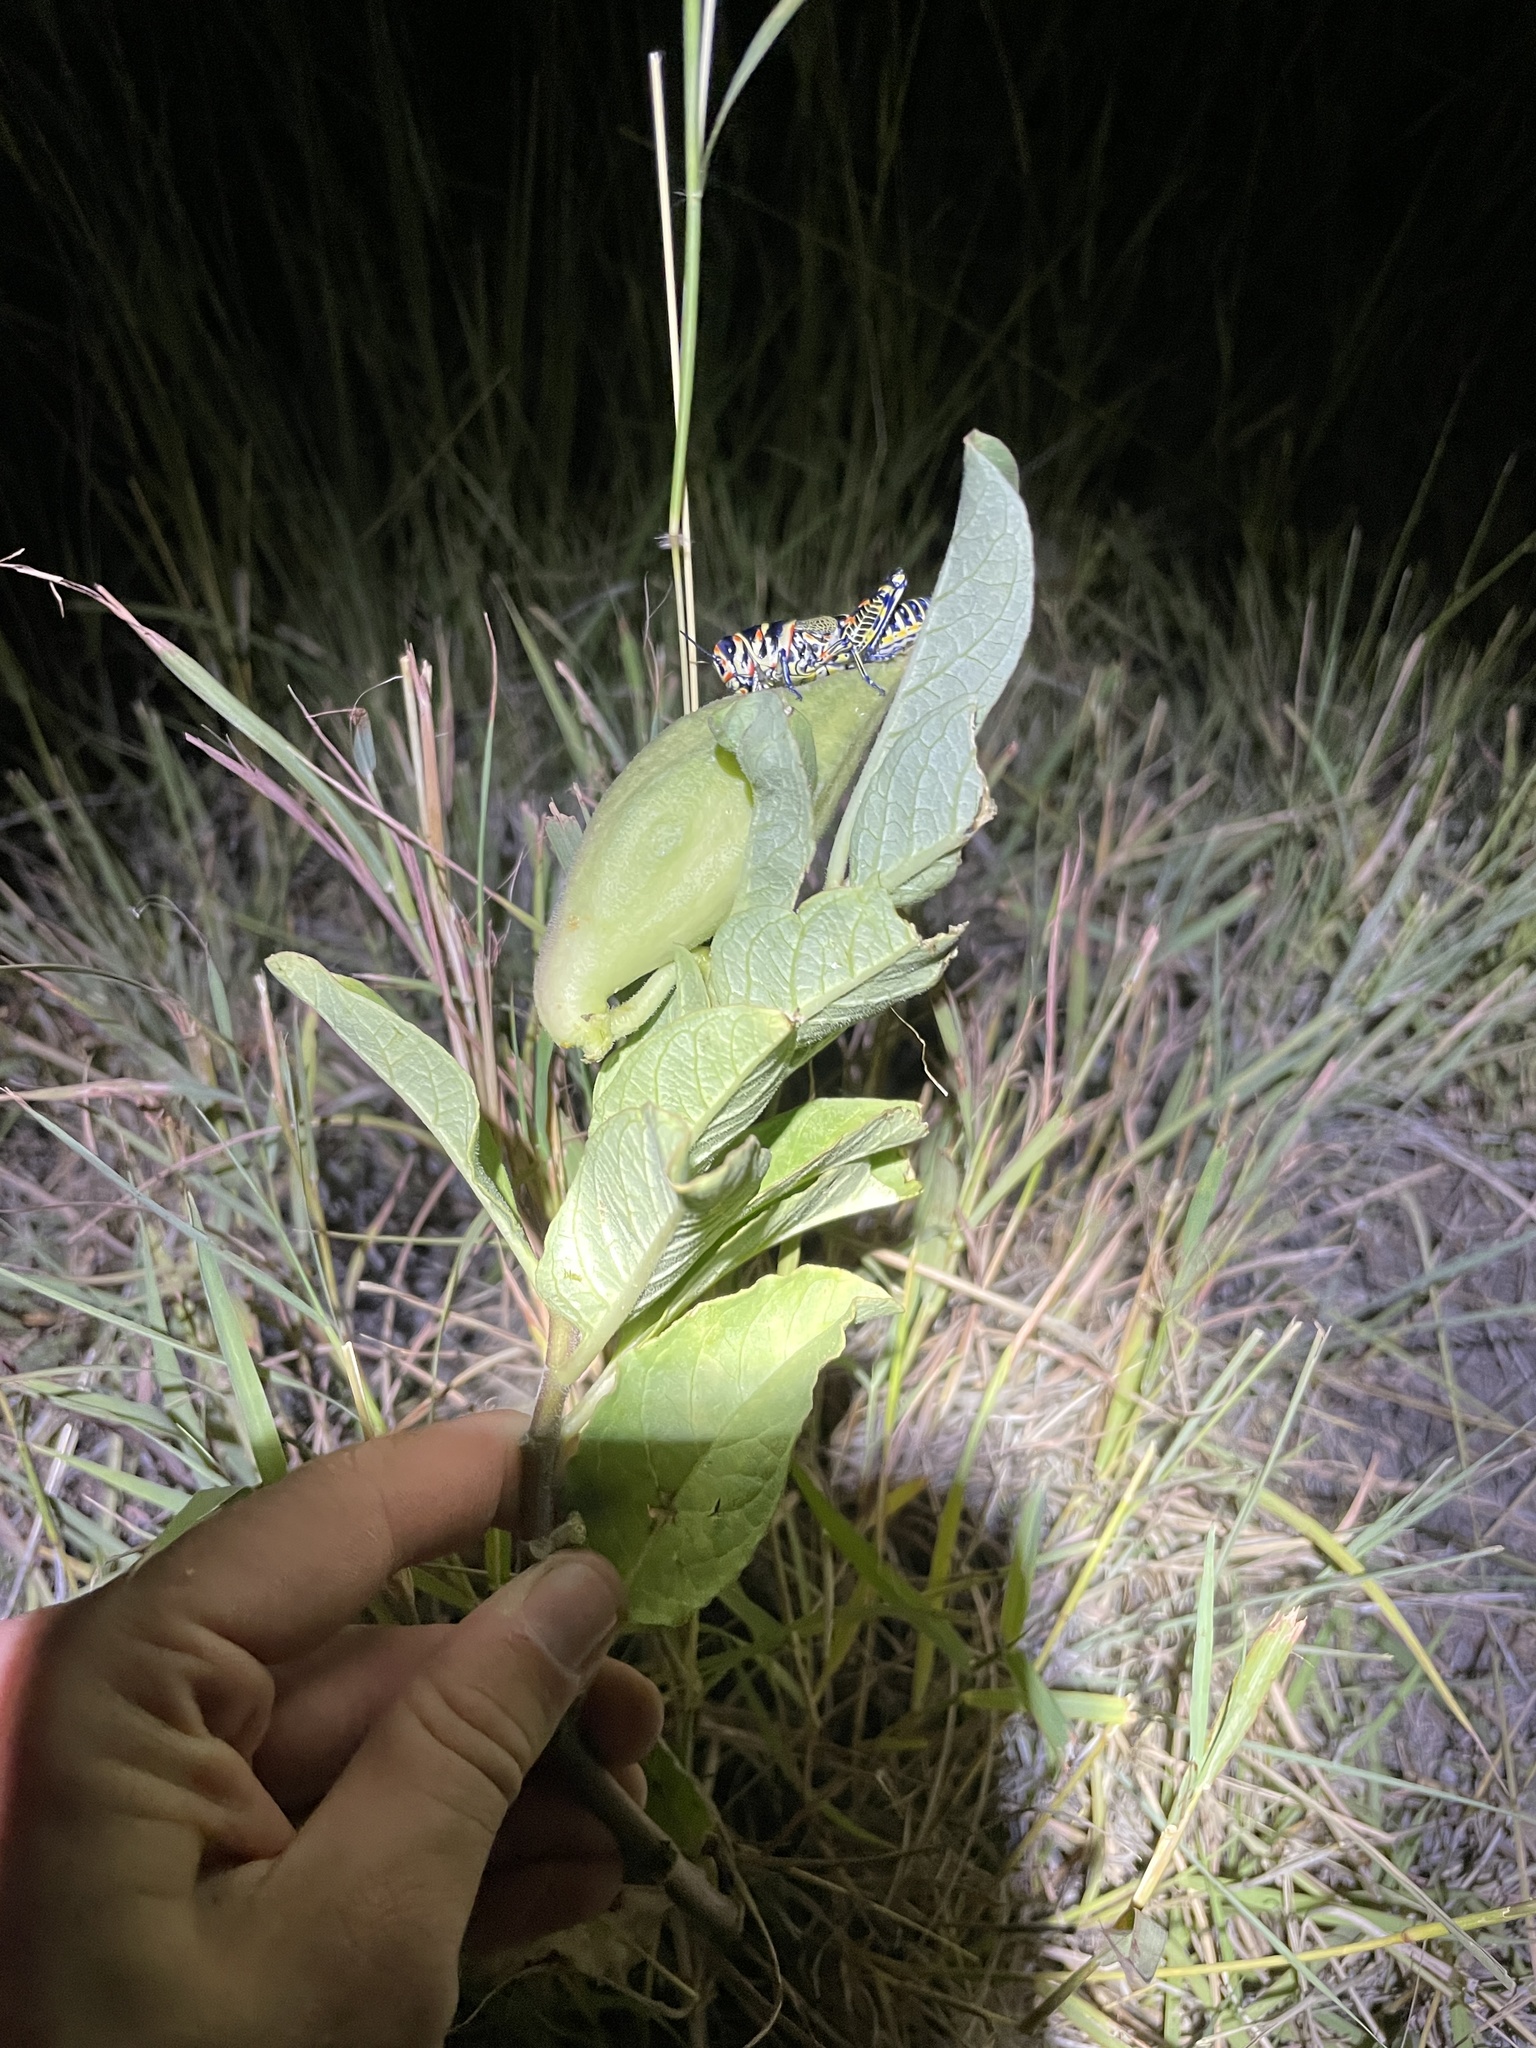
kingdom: Plantae
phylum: Tracheophyta
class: Magnoliopsida
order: Gentianales
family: Apocynaceae
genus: Asclepias
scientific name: Asclepias oenotheroides
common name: Zizotes milkweed
